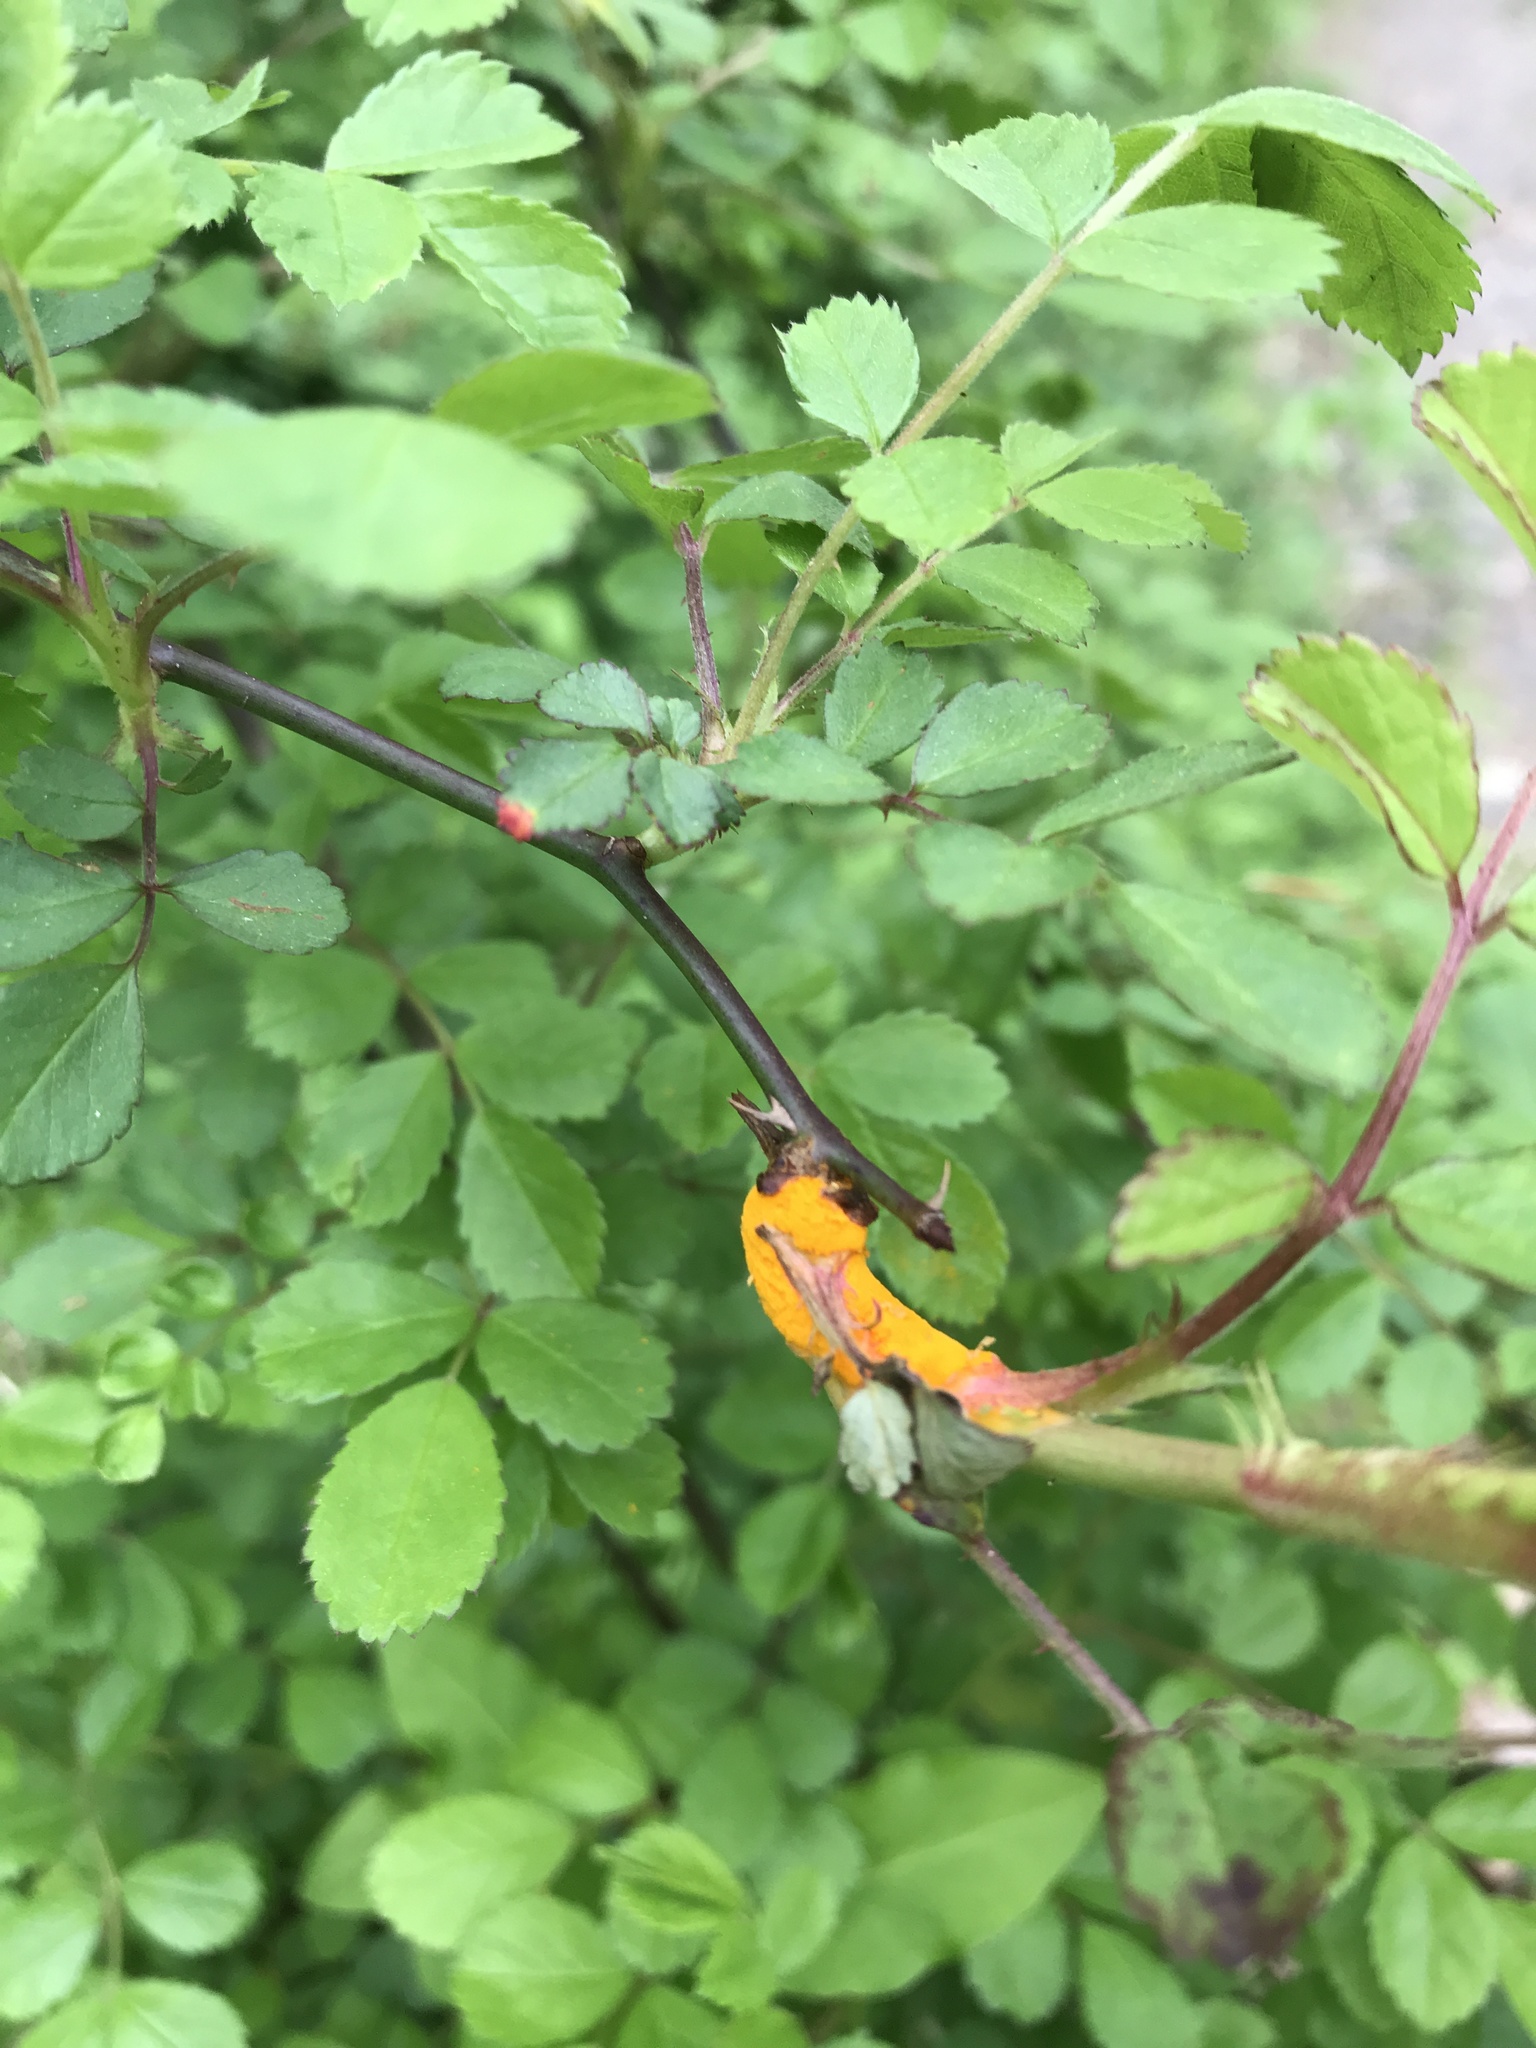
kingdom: Fungi
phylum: Basidiomycota
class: Pucciniomycetes
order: Pucciniales
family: Phragmidiaceae
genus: Phragmidium
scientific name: Phragmidium rosae-multiflorae
